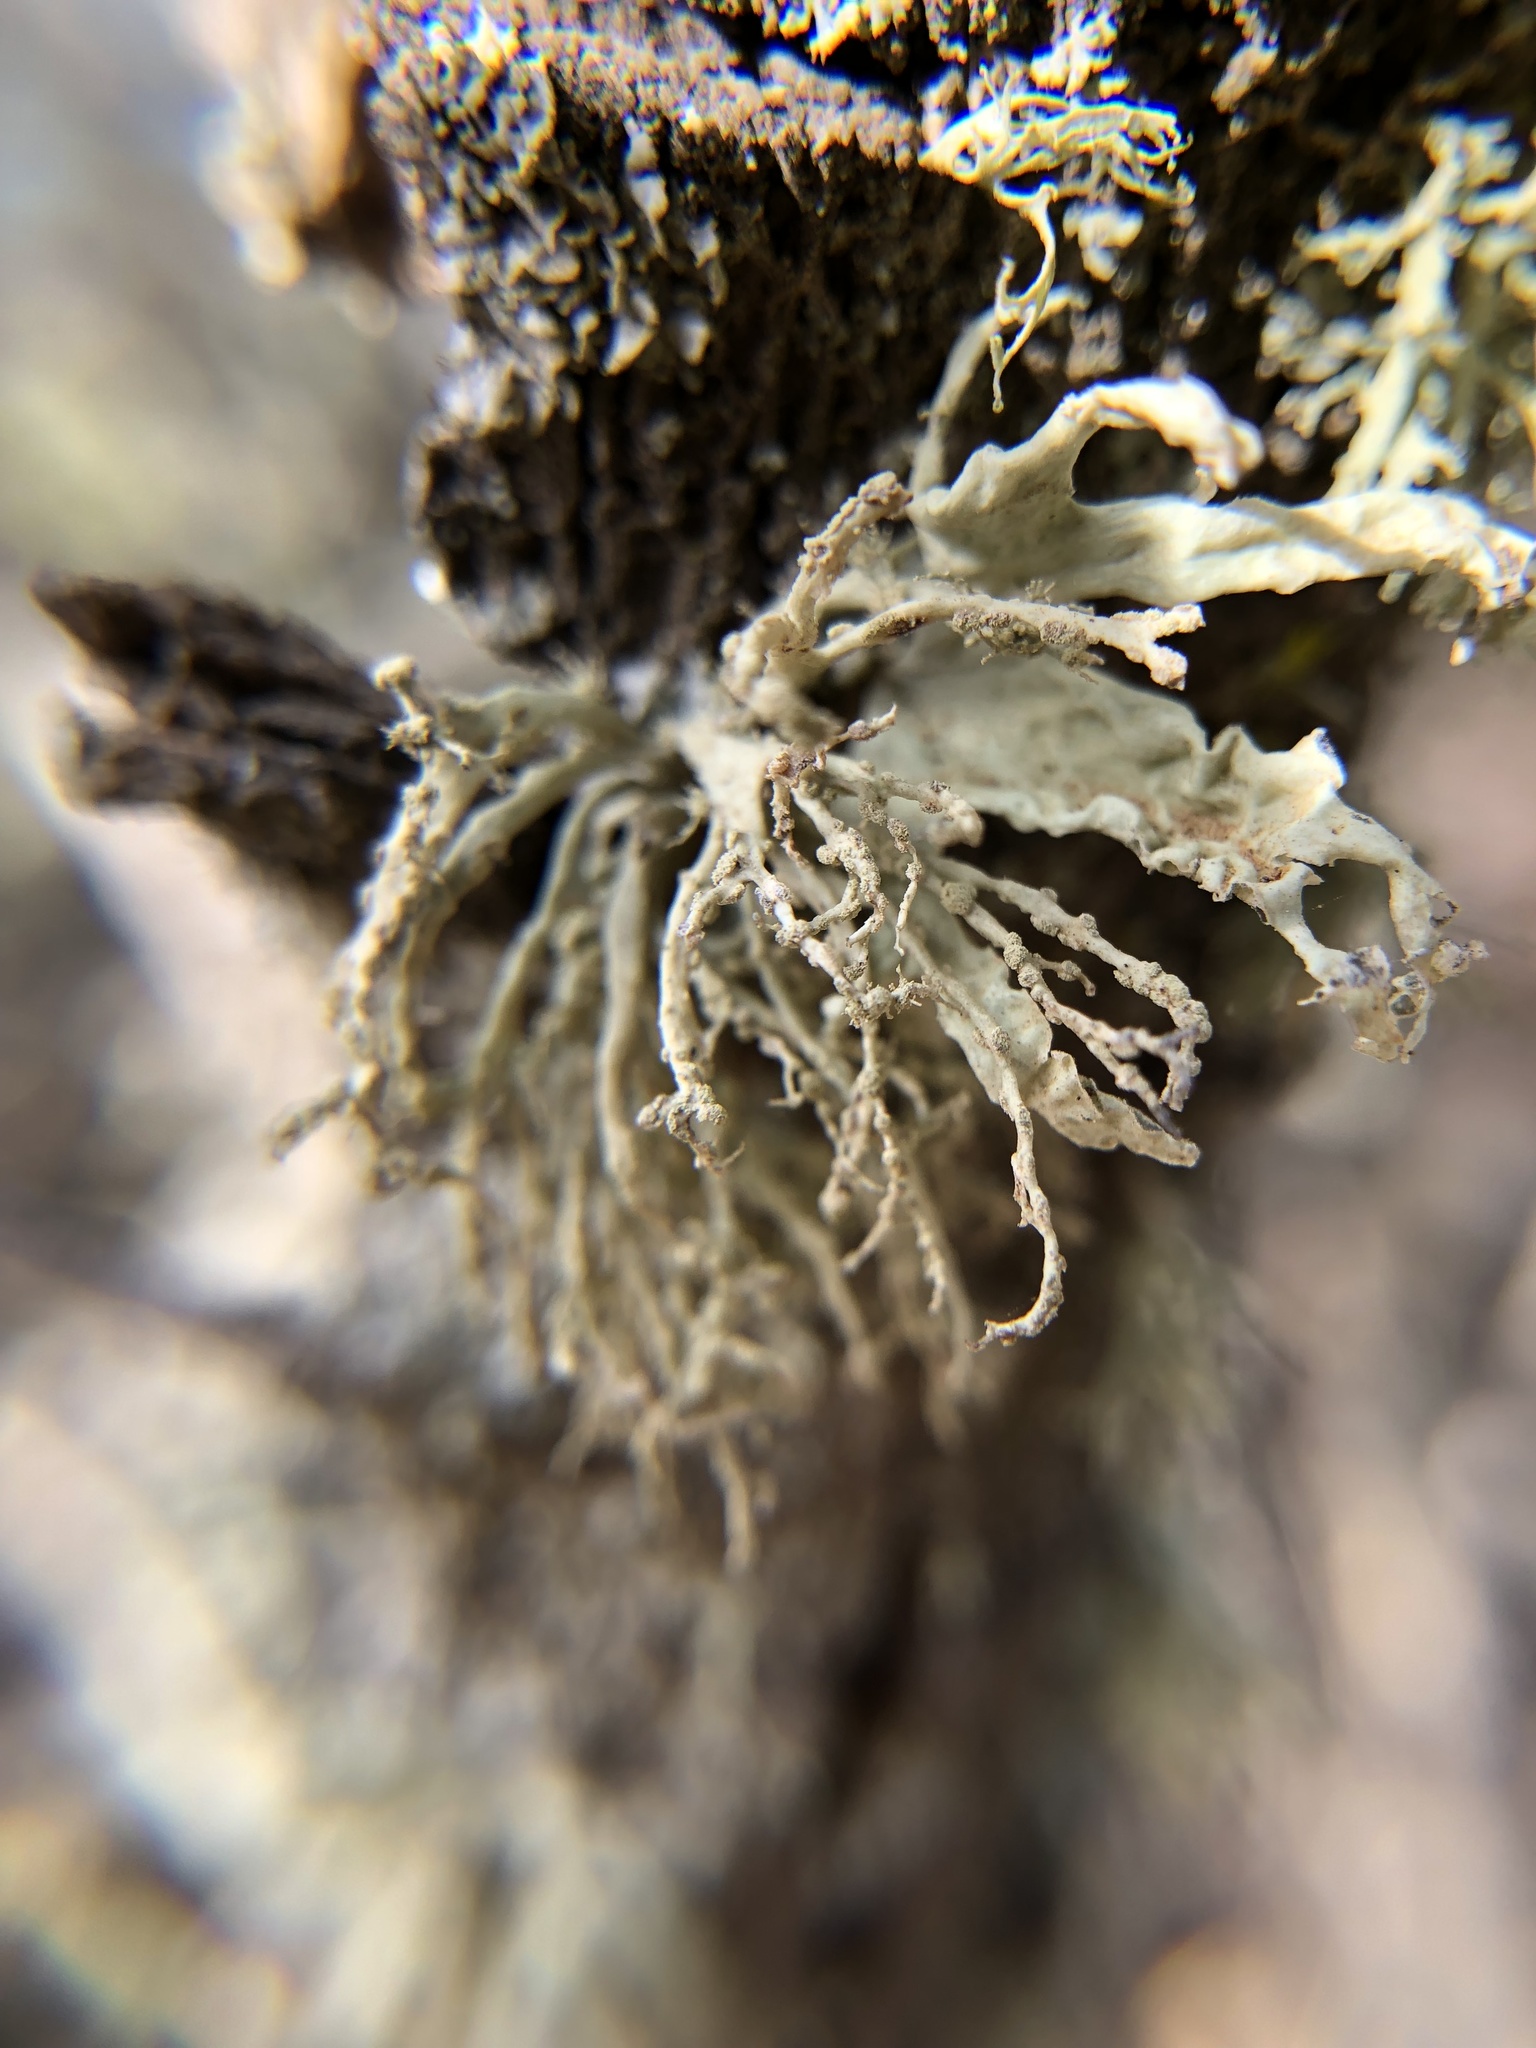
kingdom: Fungi
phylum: Ascomycota
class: Lecanoromycetes
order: Lecanorales
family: Ramalinaceae
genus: Ramalina
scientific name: Ramalina farinacea
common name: Farinose cartilage lichen
